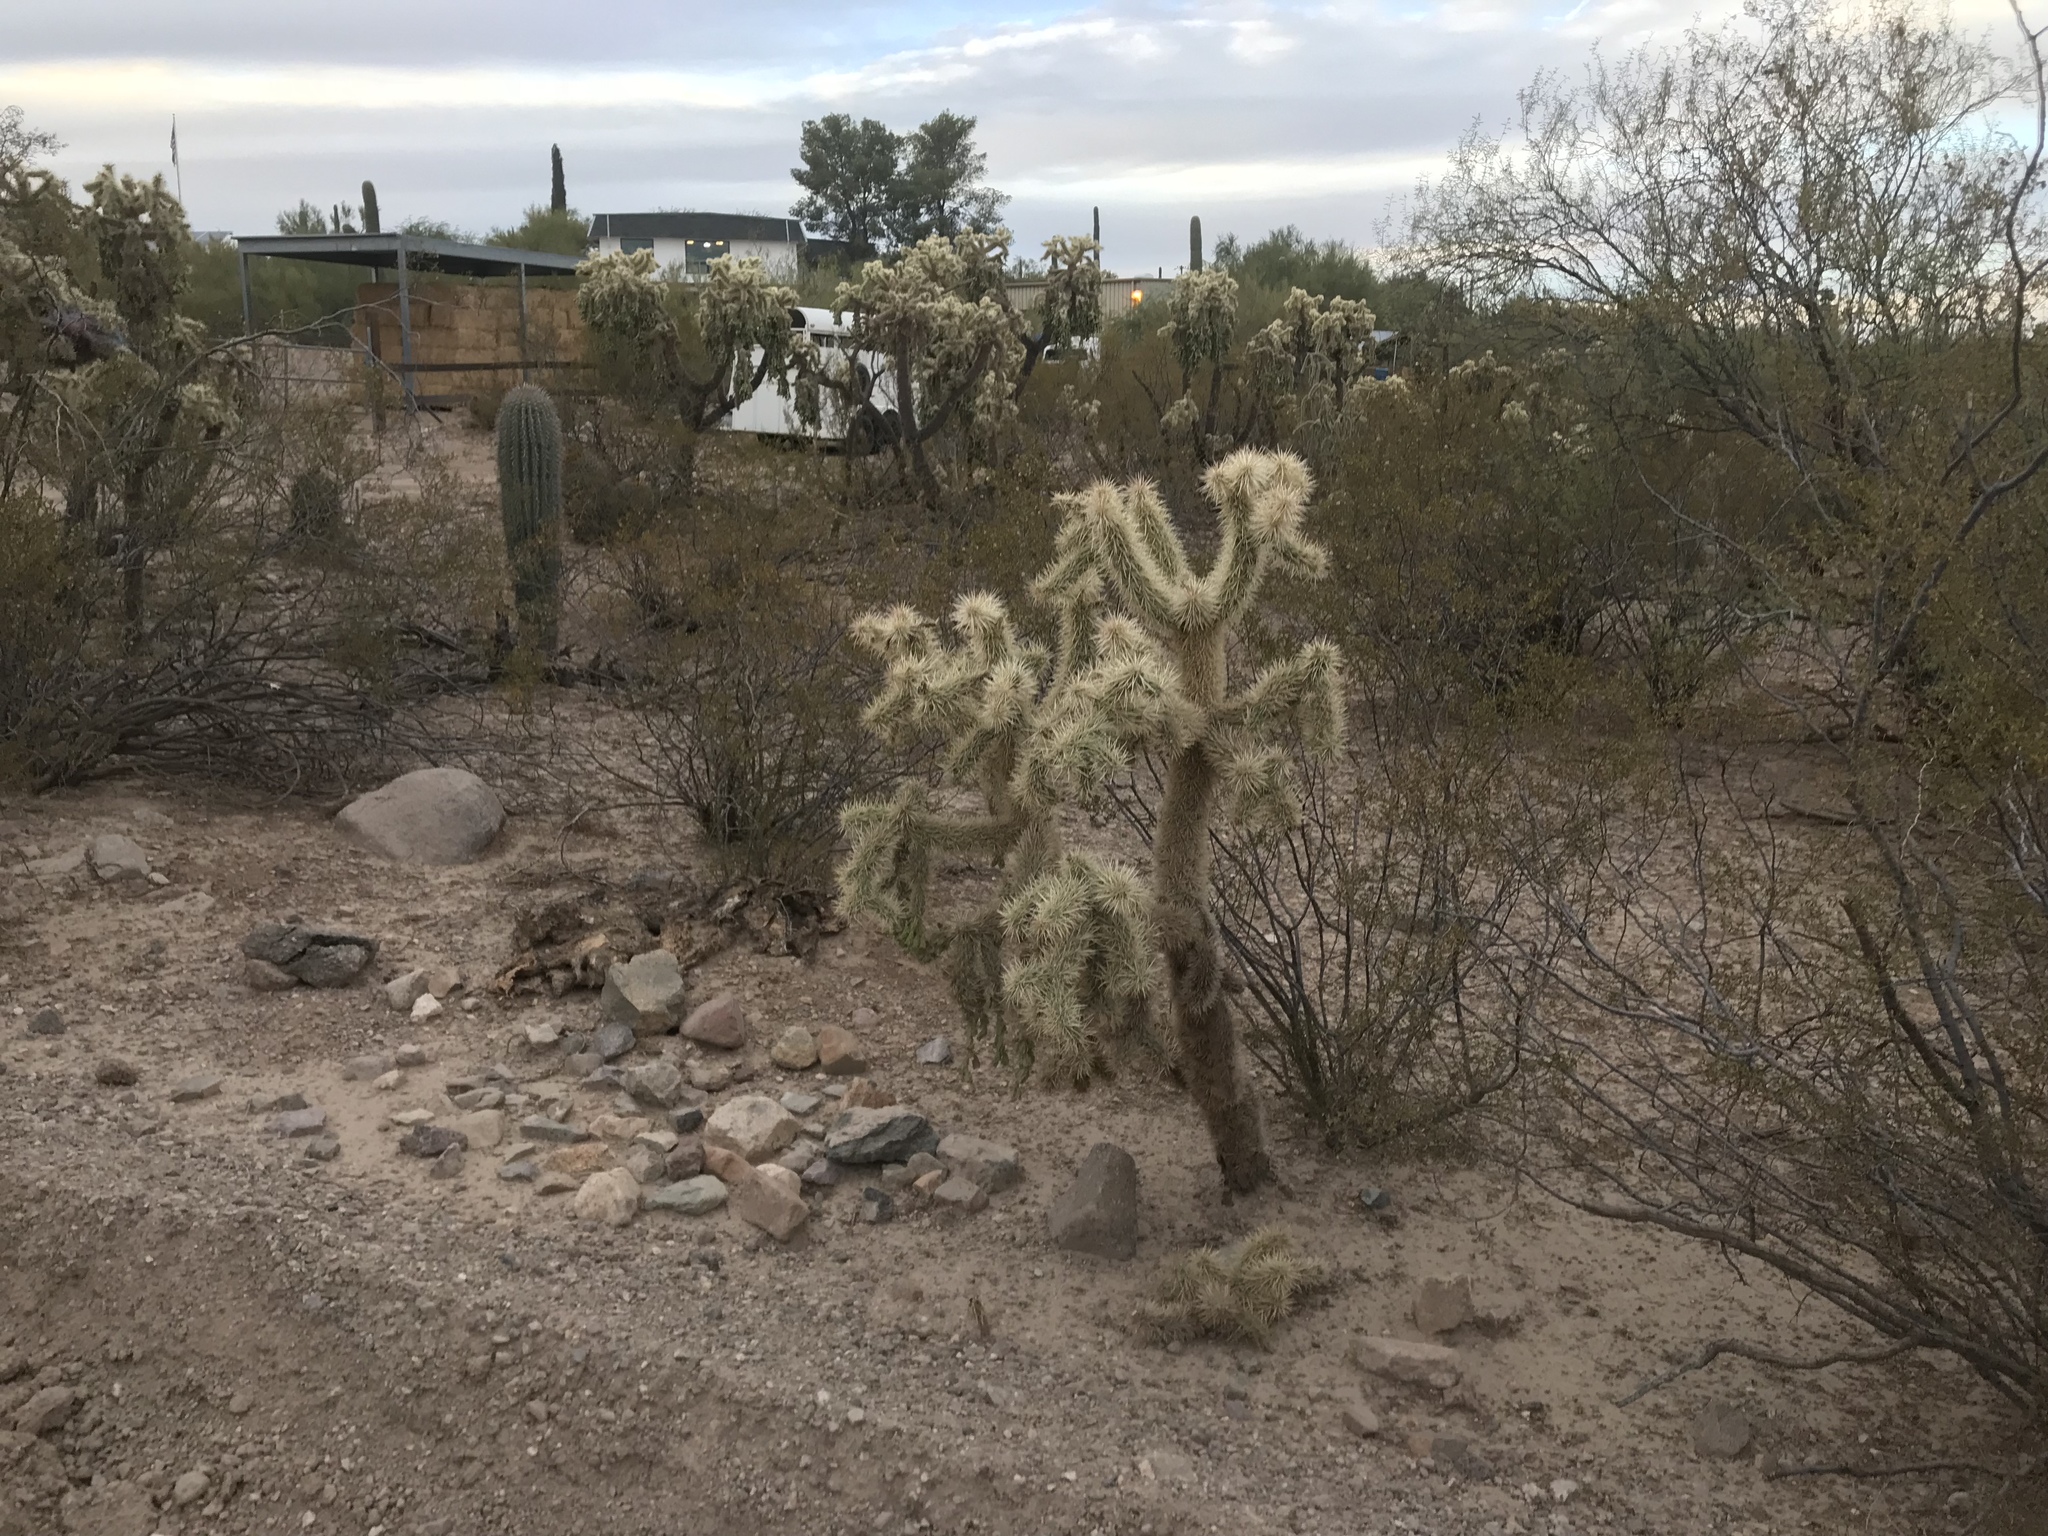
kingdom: Plantae
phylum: Tracheophyta
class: Magnoliopsida
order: Caryophyllales
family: Cactaceae
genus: Cylindropuntia
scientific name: Cylindropuntia fulgida
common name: Jumping cholla
